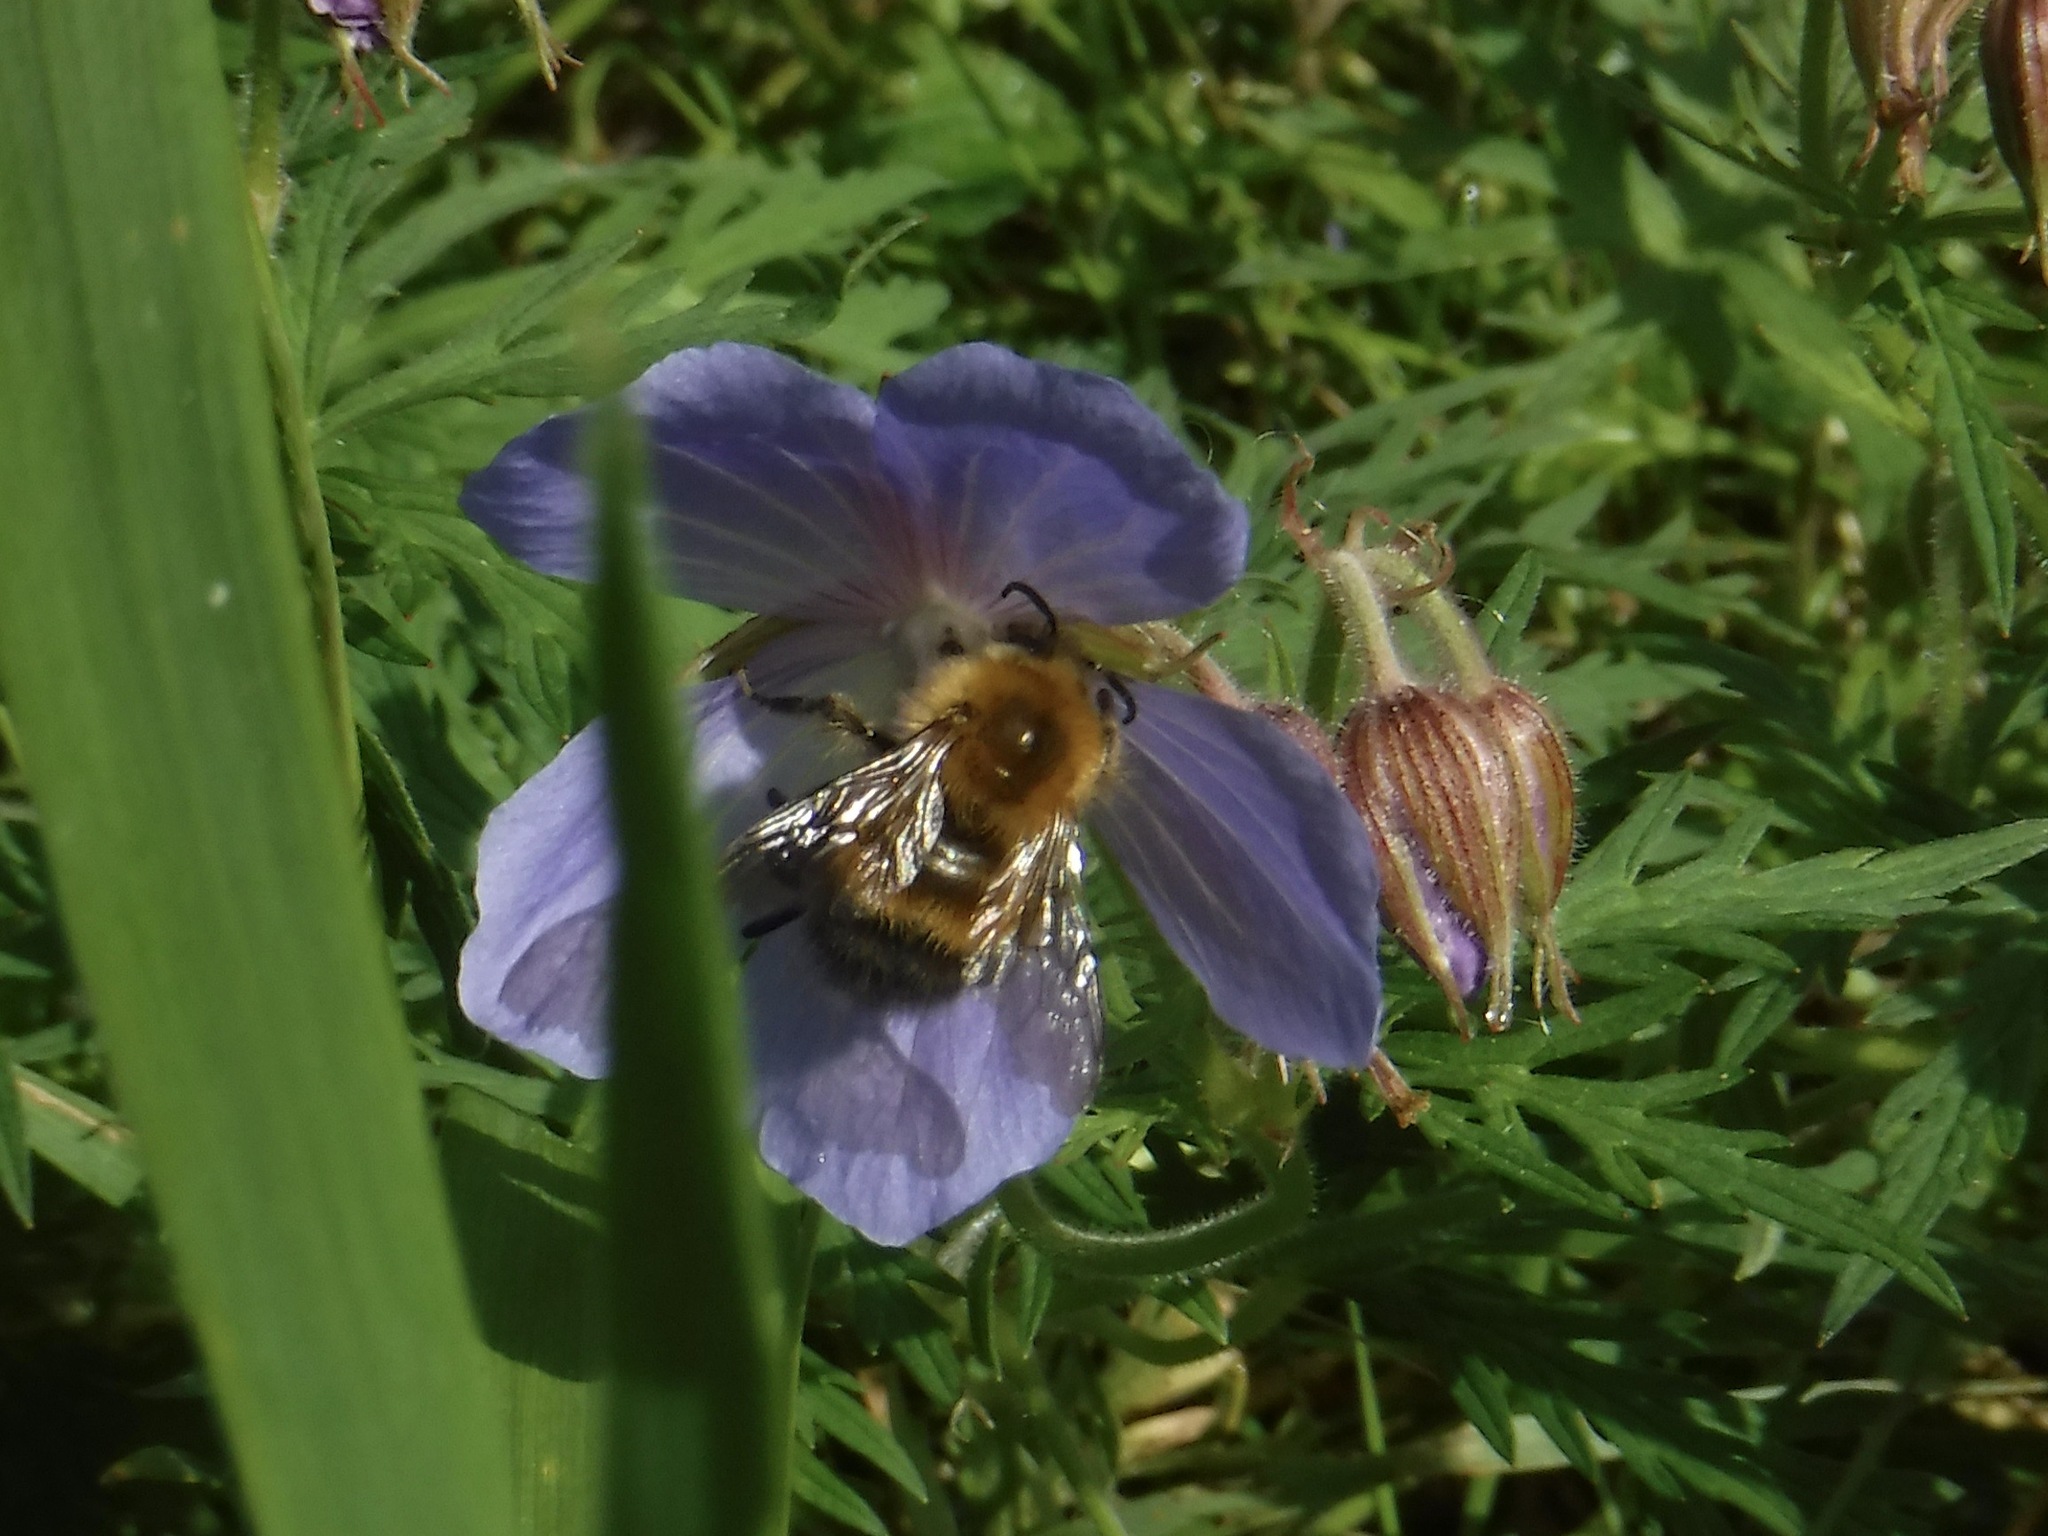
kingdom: Animalia
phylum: Arthropoda
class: Insecta
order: Hymenoptera
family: Apidae
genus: Bombus
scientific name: Bombus hypnorum
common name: New garden bumblebee
